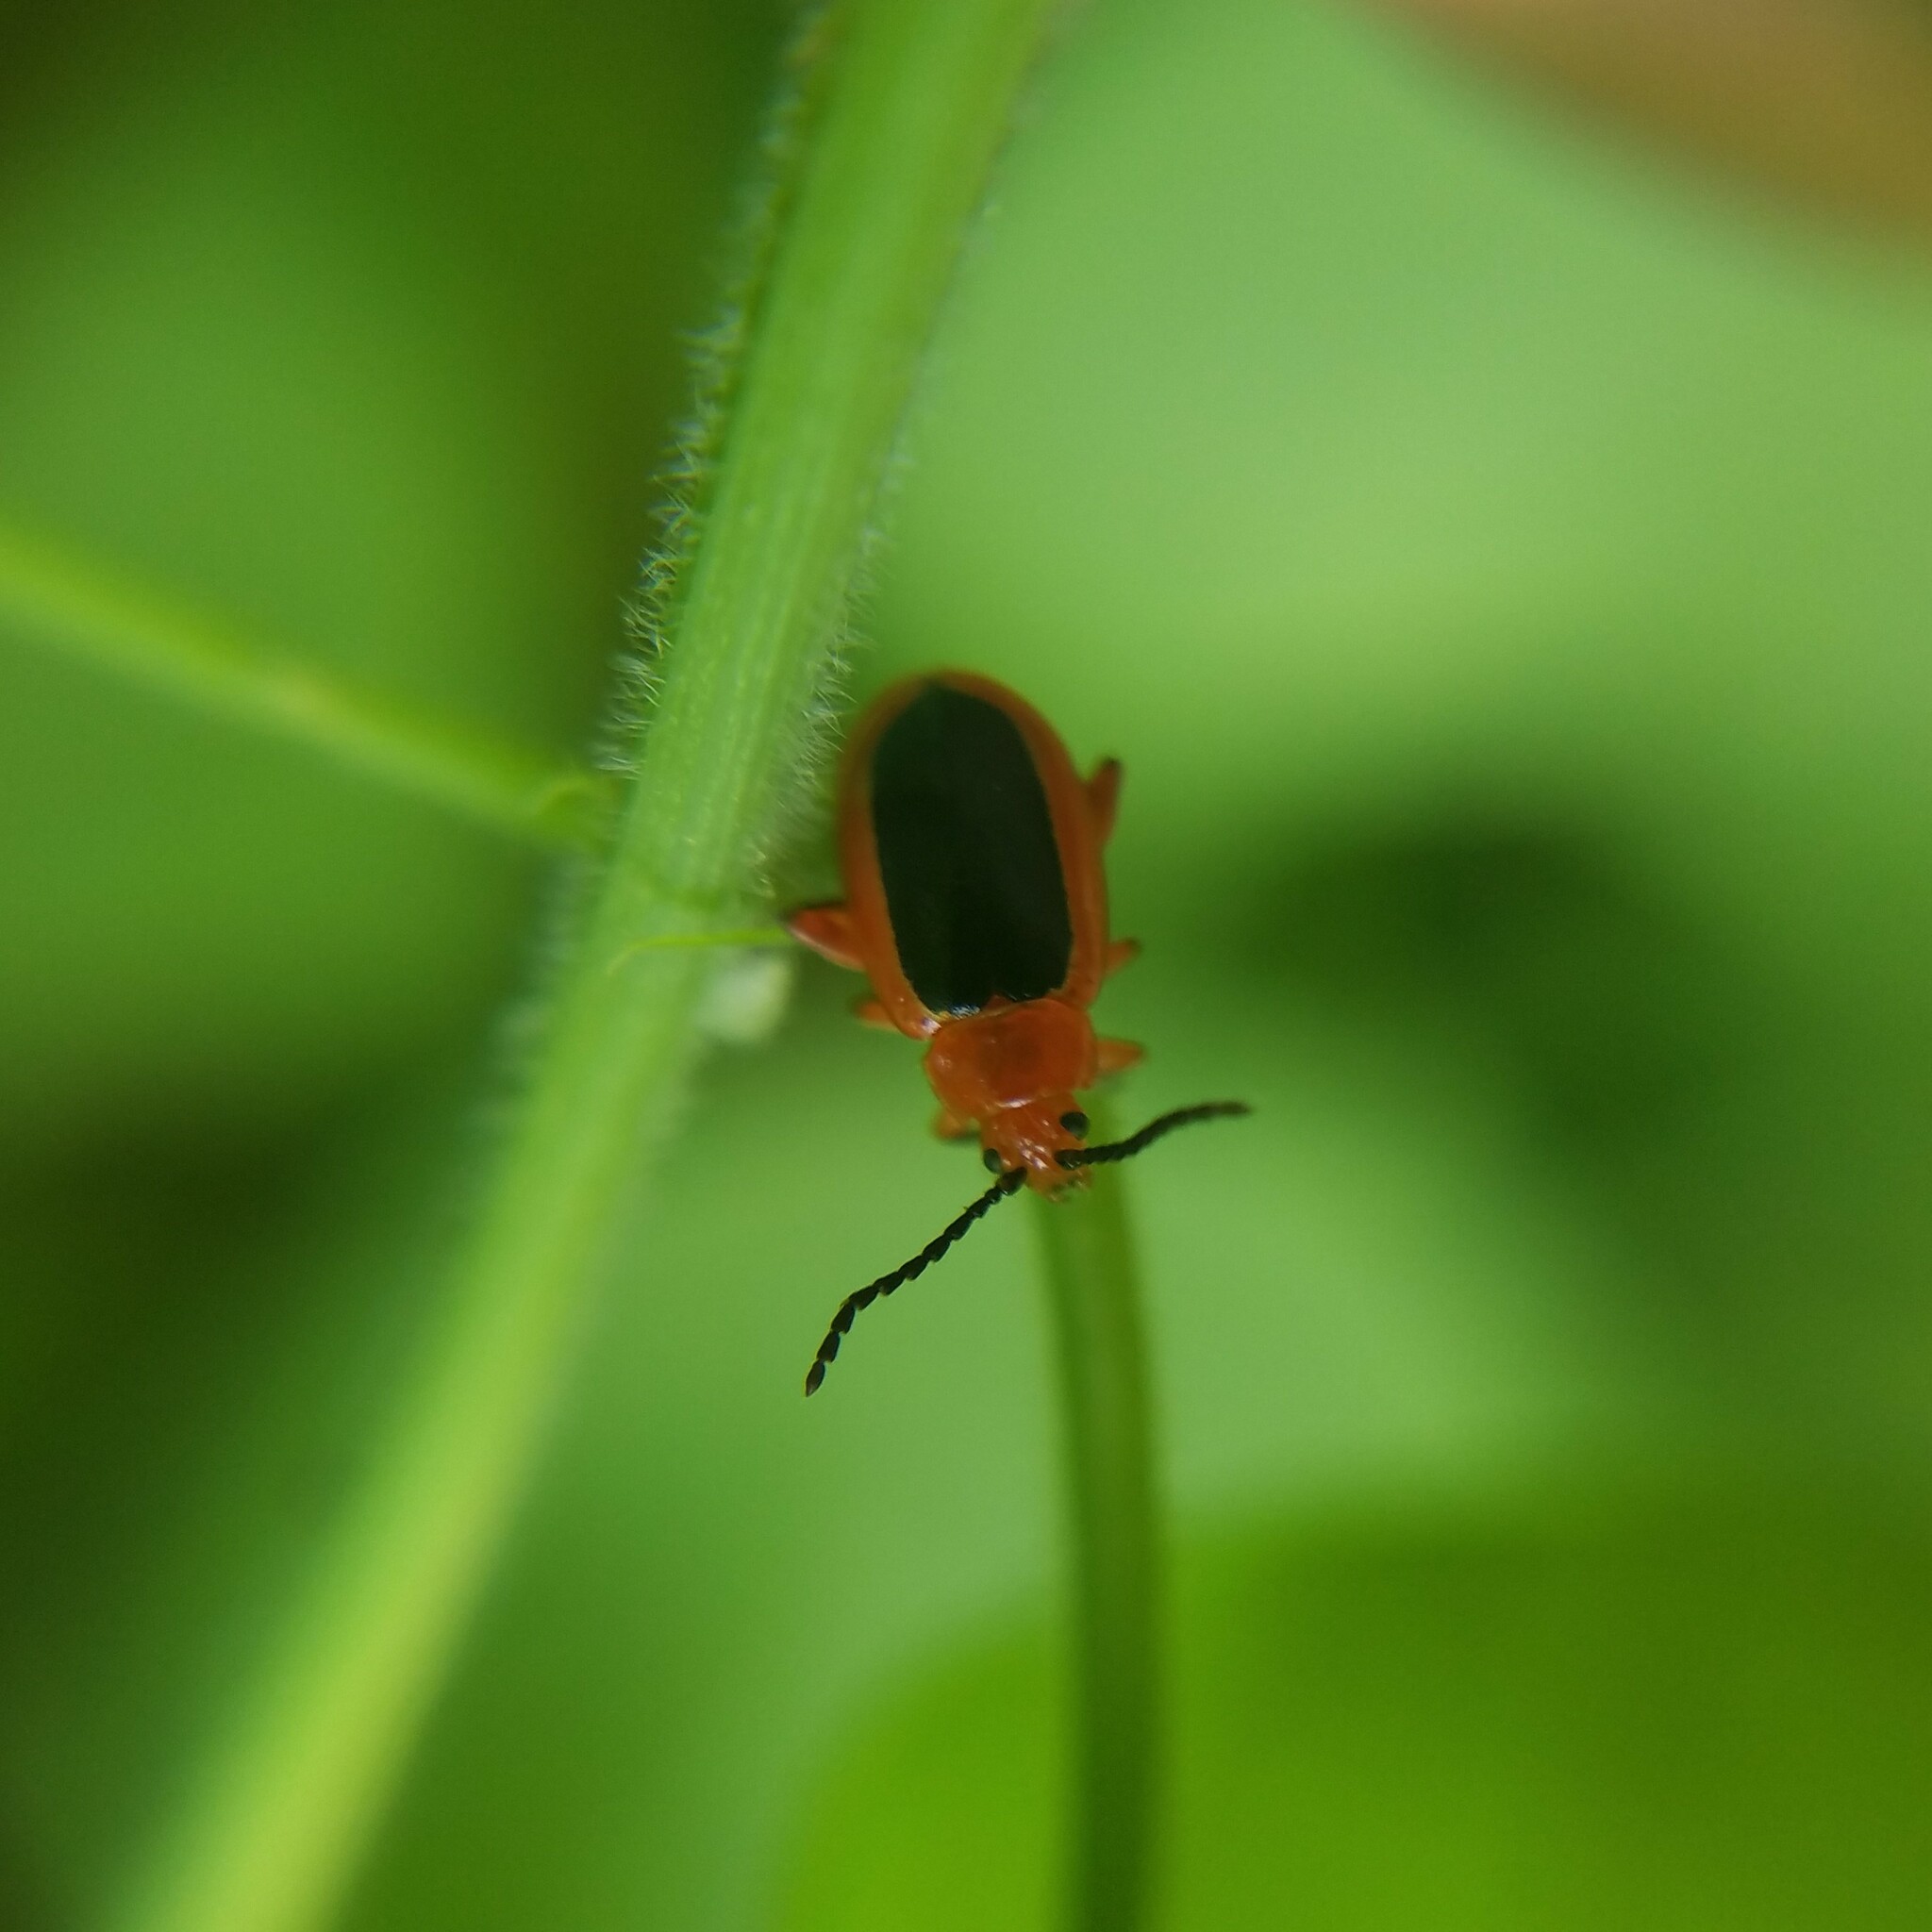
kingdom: Animalia
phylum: Arthropoda
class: Insecta
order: Coleoptera
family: Chrysomelidae
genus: Disonycha
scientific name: Disonycha discoidea
